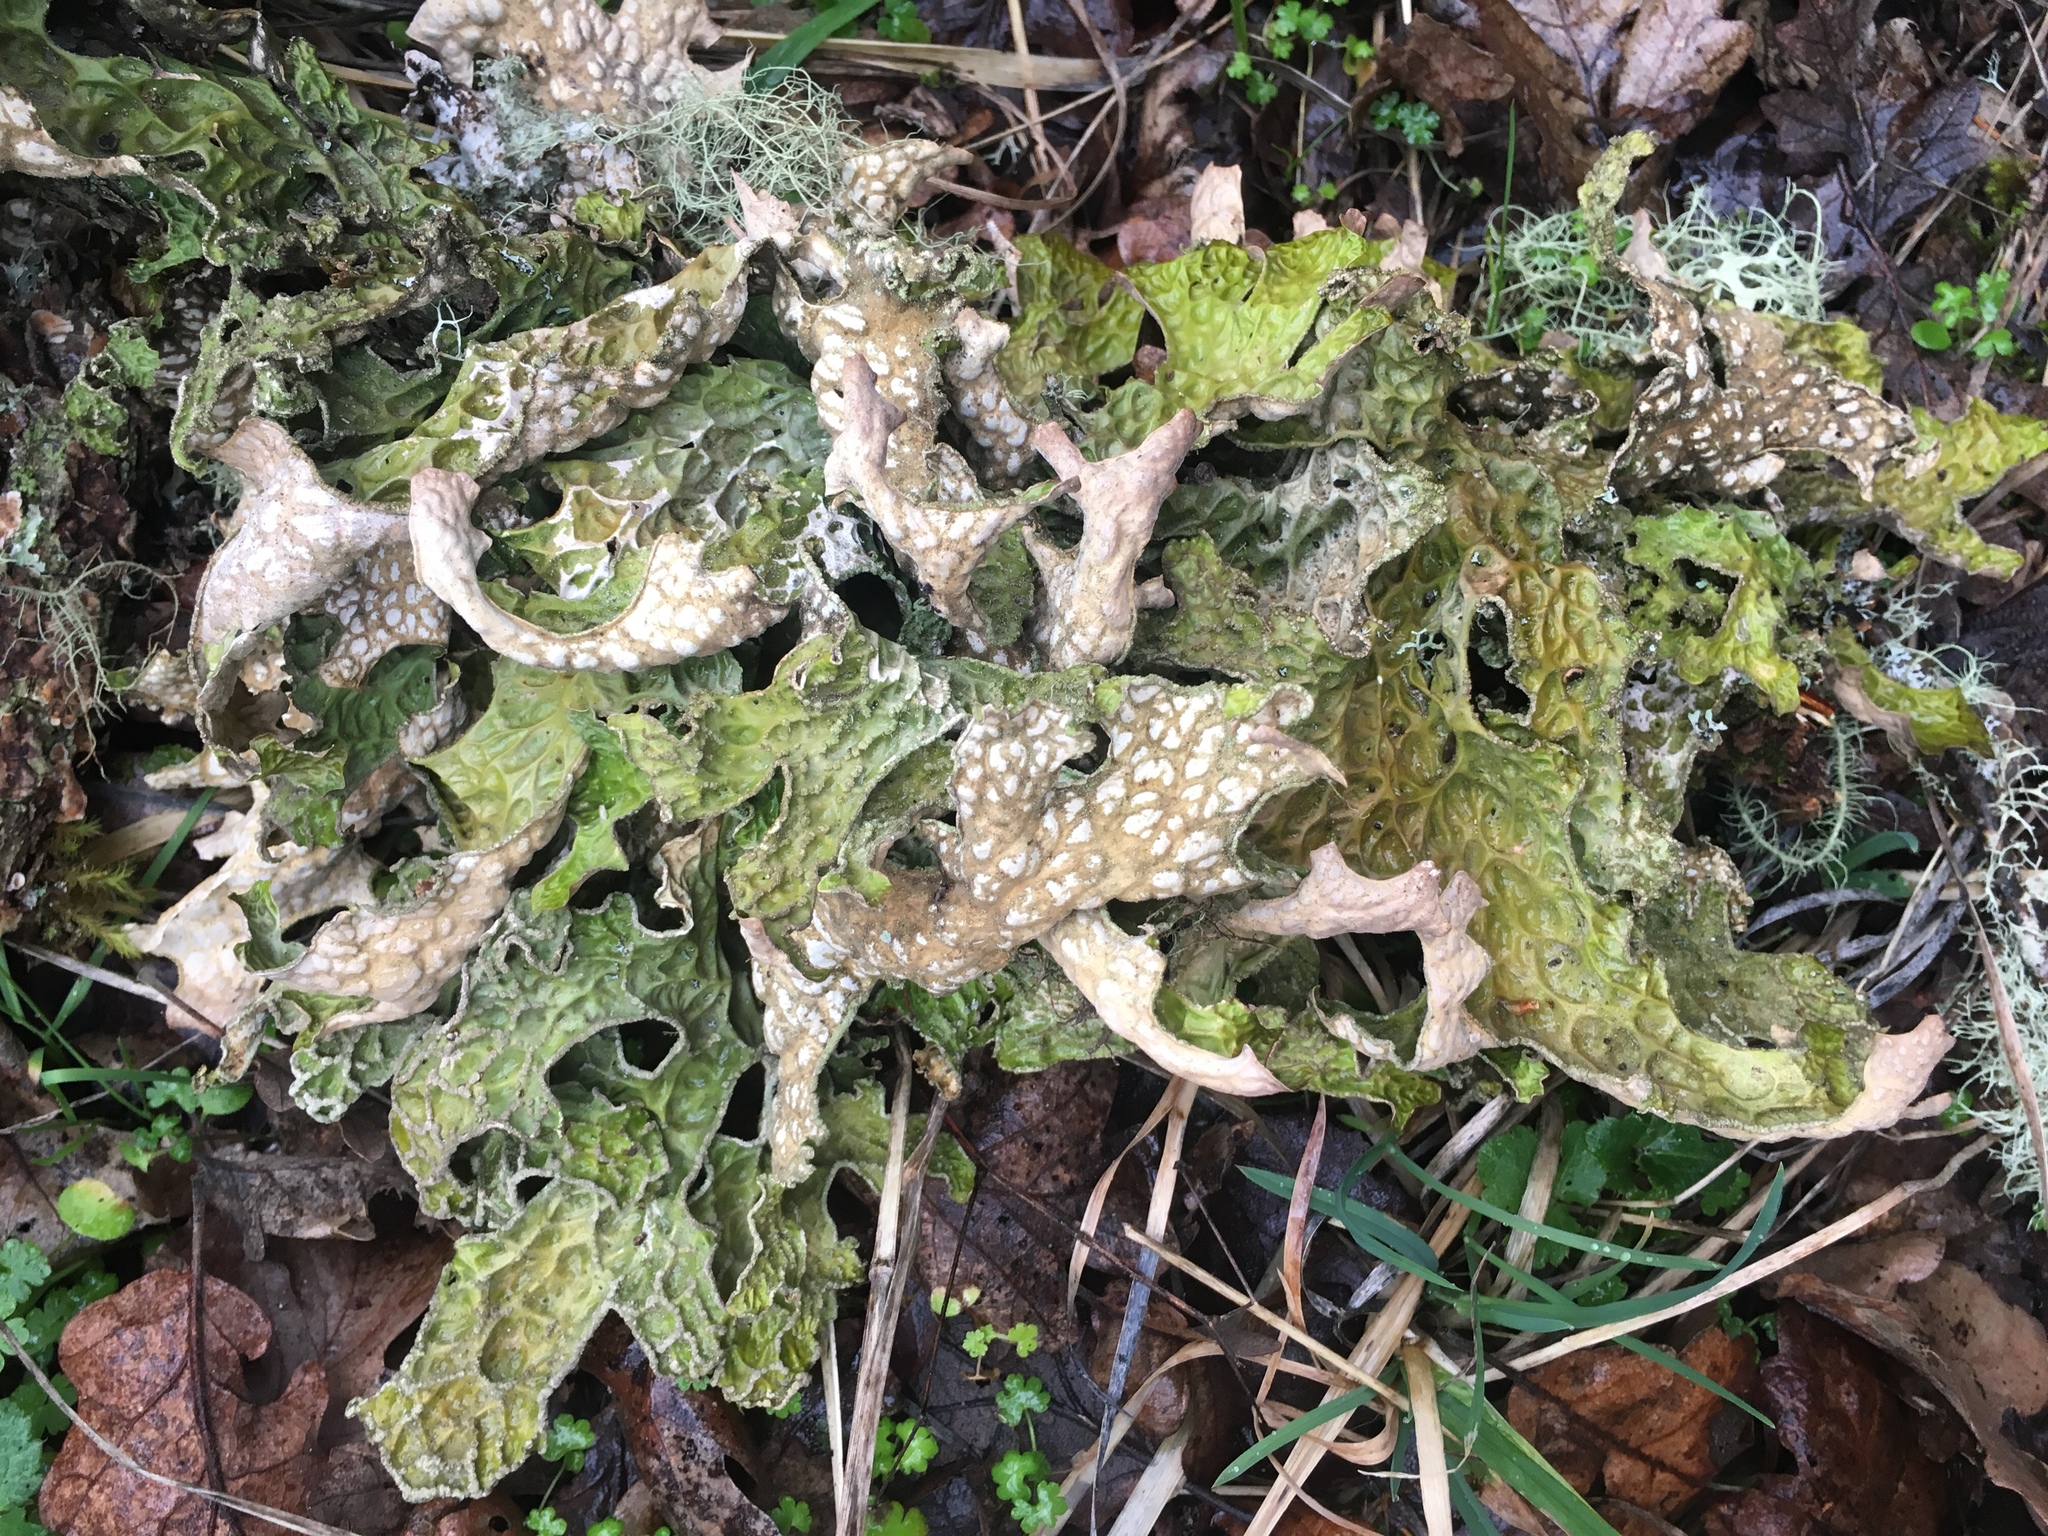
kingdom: Fungi
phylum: Ascomycota
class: Lecanoromycetes
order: Peltigerales
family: Lobariaceae
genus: Lobaria
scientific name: Lobaria pulmonaria
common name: Lungwort
